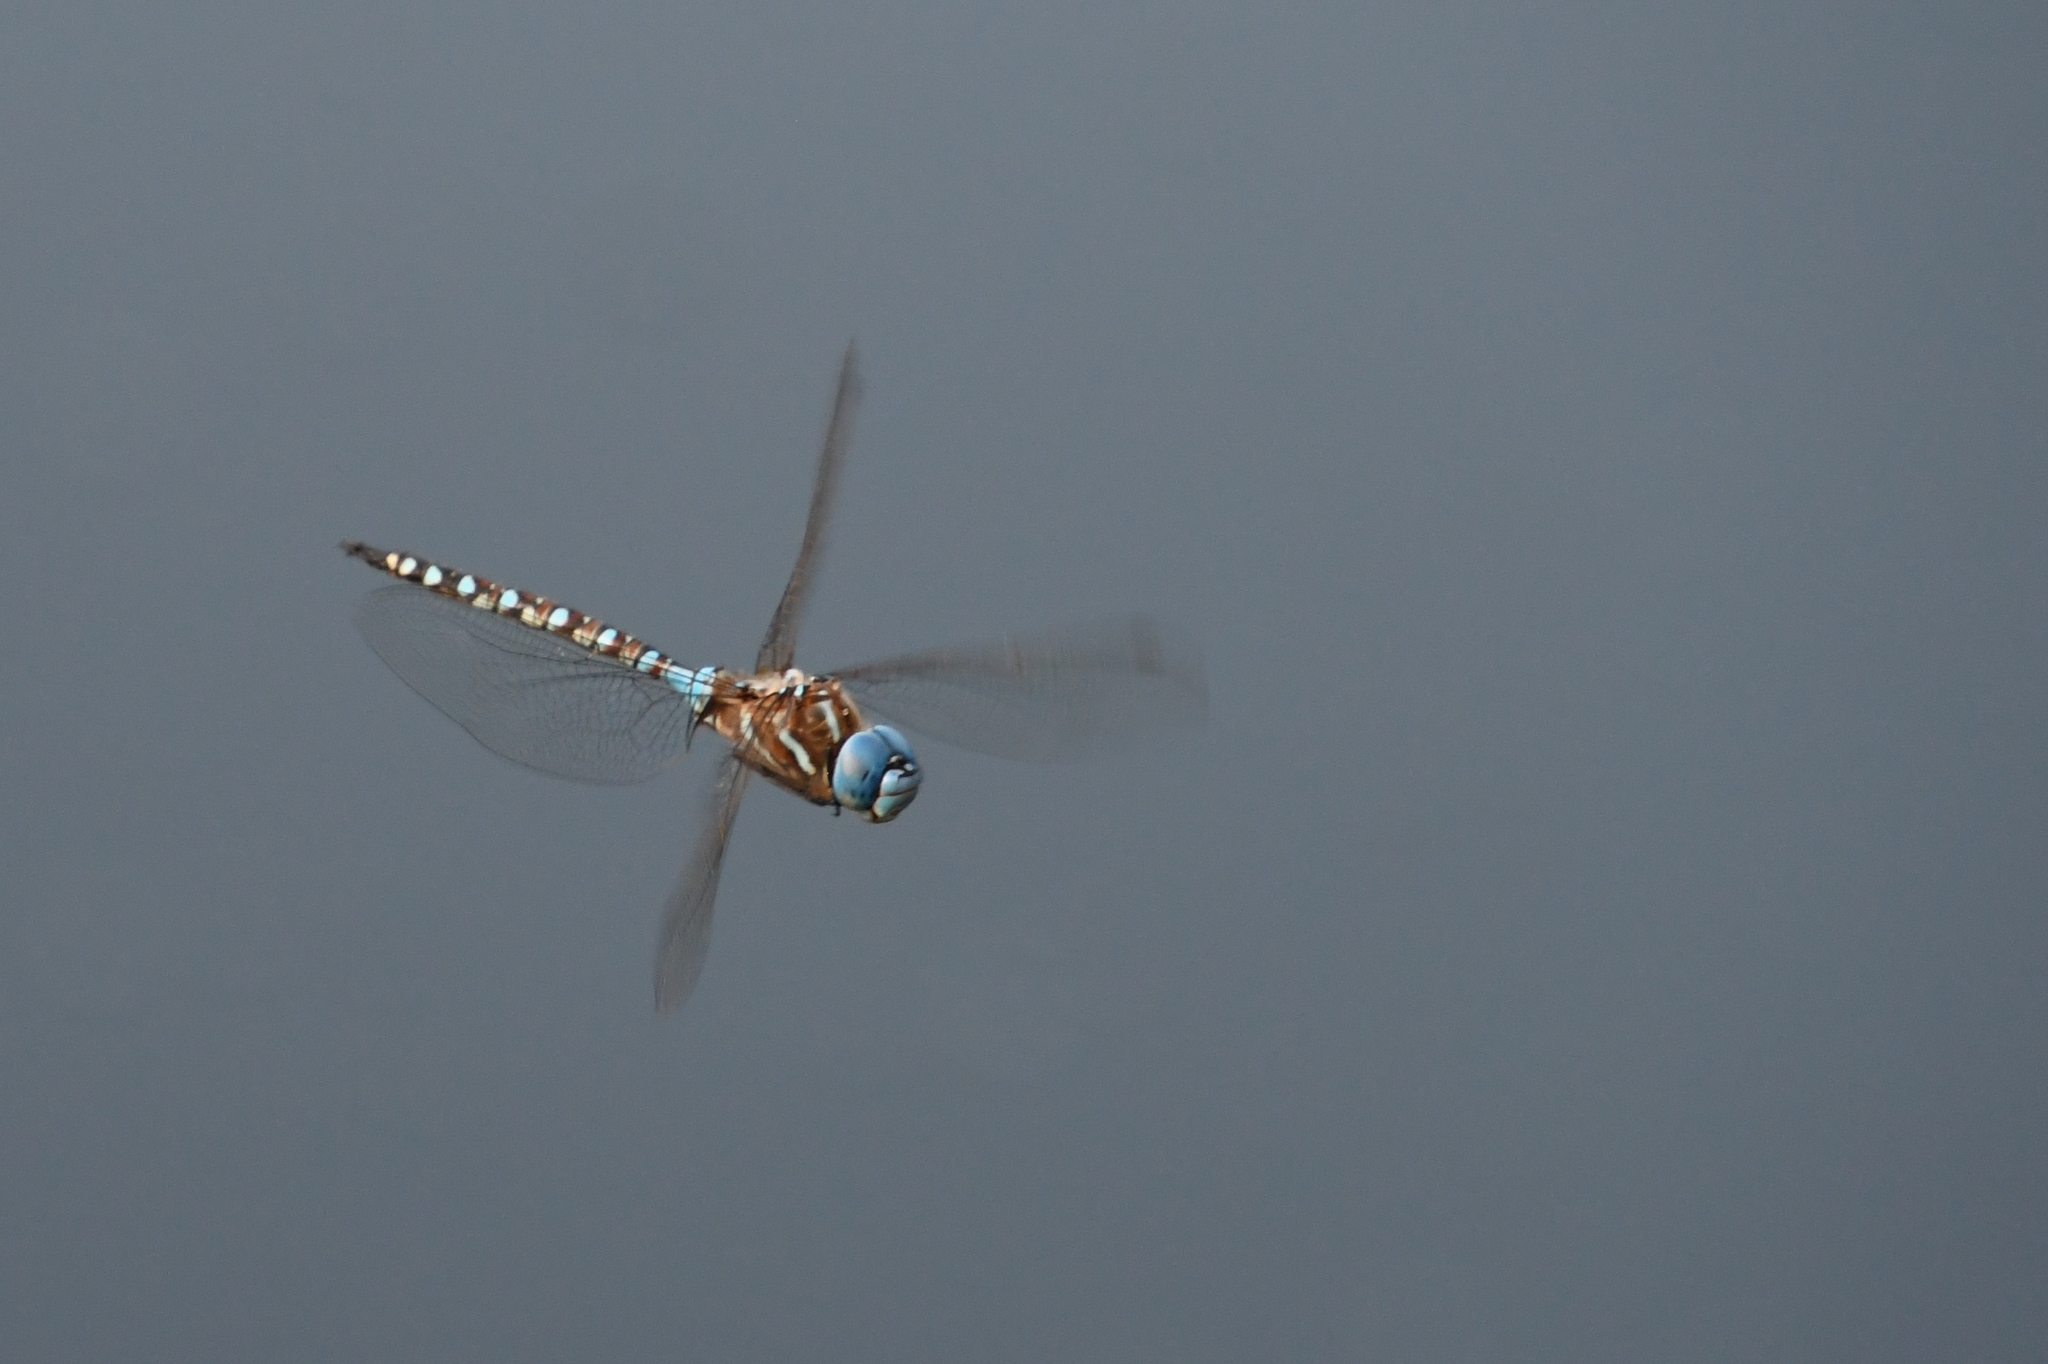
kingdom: Animalia
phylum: Arthropoda
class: Insecta
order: Odonata
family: Aeshnidae
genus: Rhionaeschna
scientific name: Rhionaeschna multicolor
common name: Blue-eyed darner
